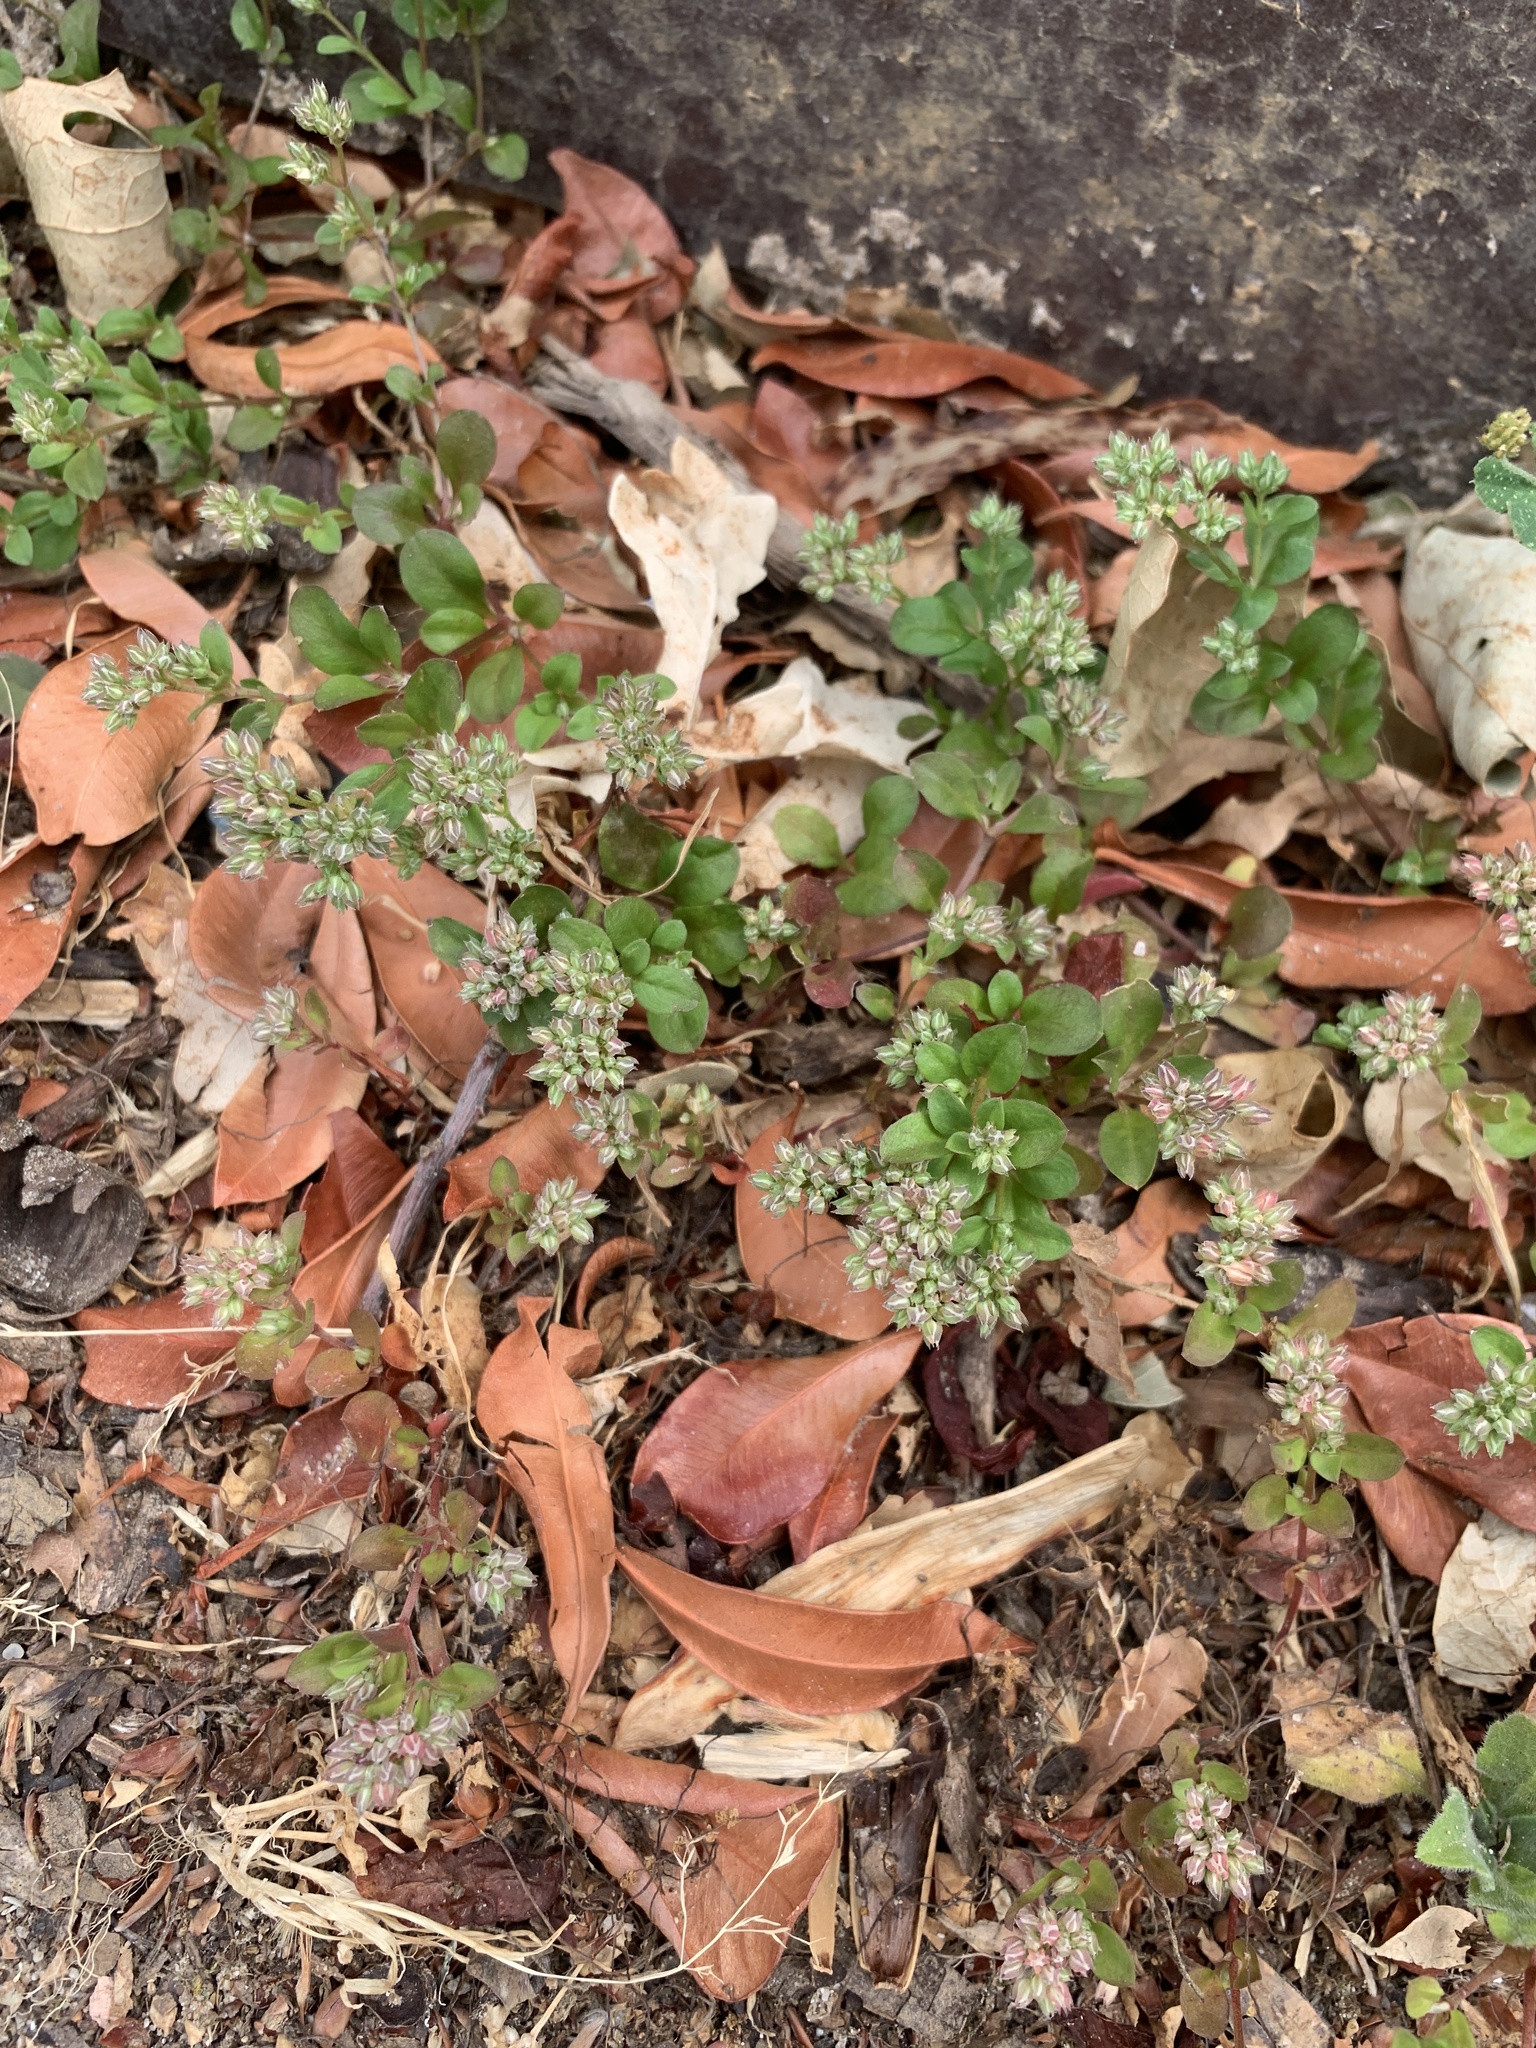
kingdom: Plantae
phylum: Tracheophyta
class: Magnoliopsida
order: Caryophyllales
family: Caryophyllaceae
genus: Polycarpon
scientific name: Polycarpon tetraphyllum
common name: Four-leaved all-seed
